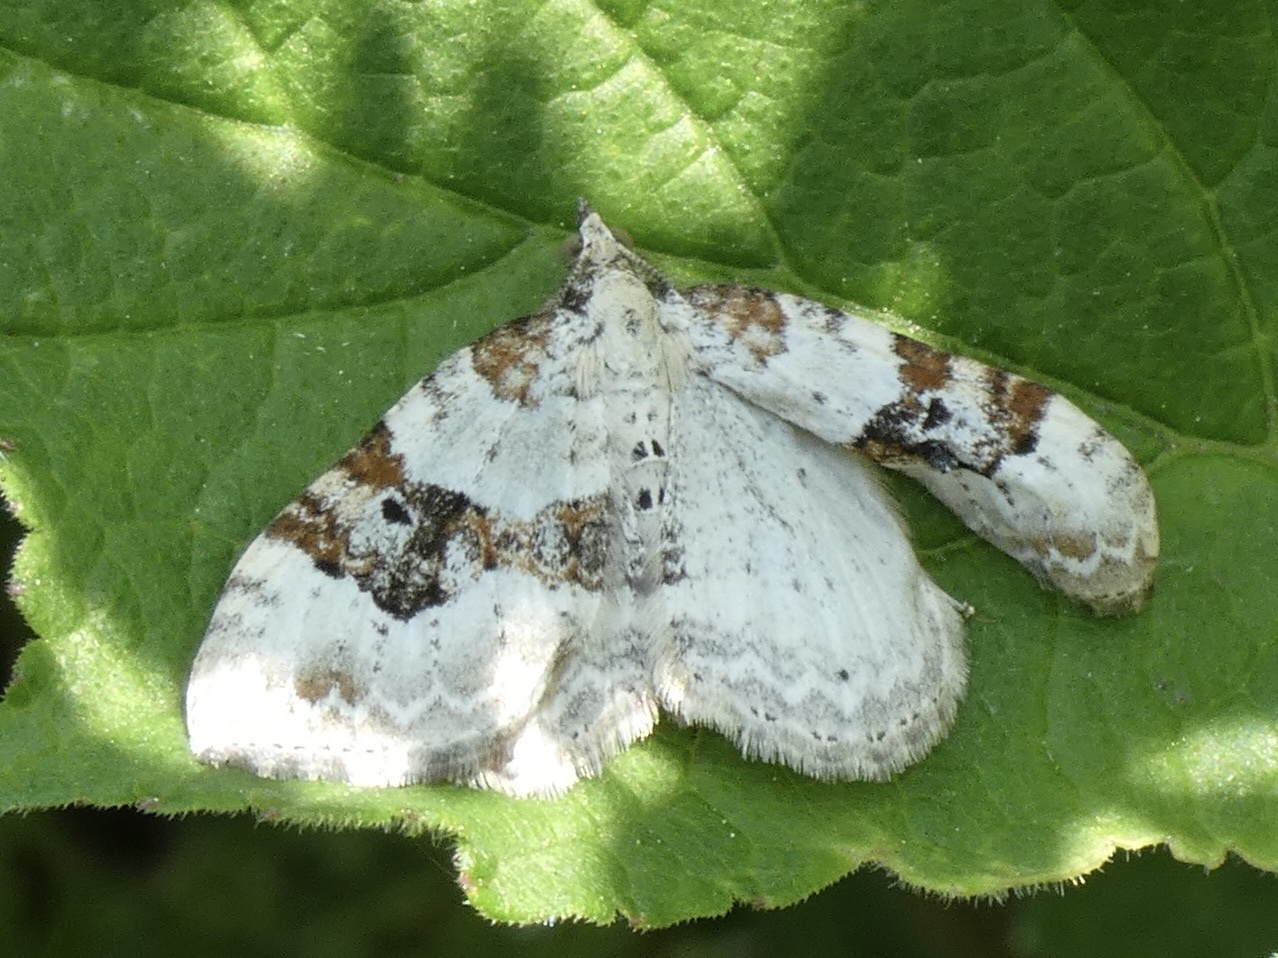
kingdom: Animalia
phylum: Arthropoda
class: Insecta
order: Lepidoptera
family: Geometridae
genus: Xanthorhoe
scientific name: Xanthorhoe montanata
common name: Silver-ground carpet
